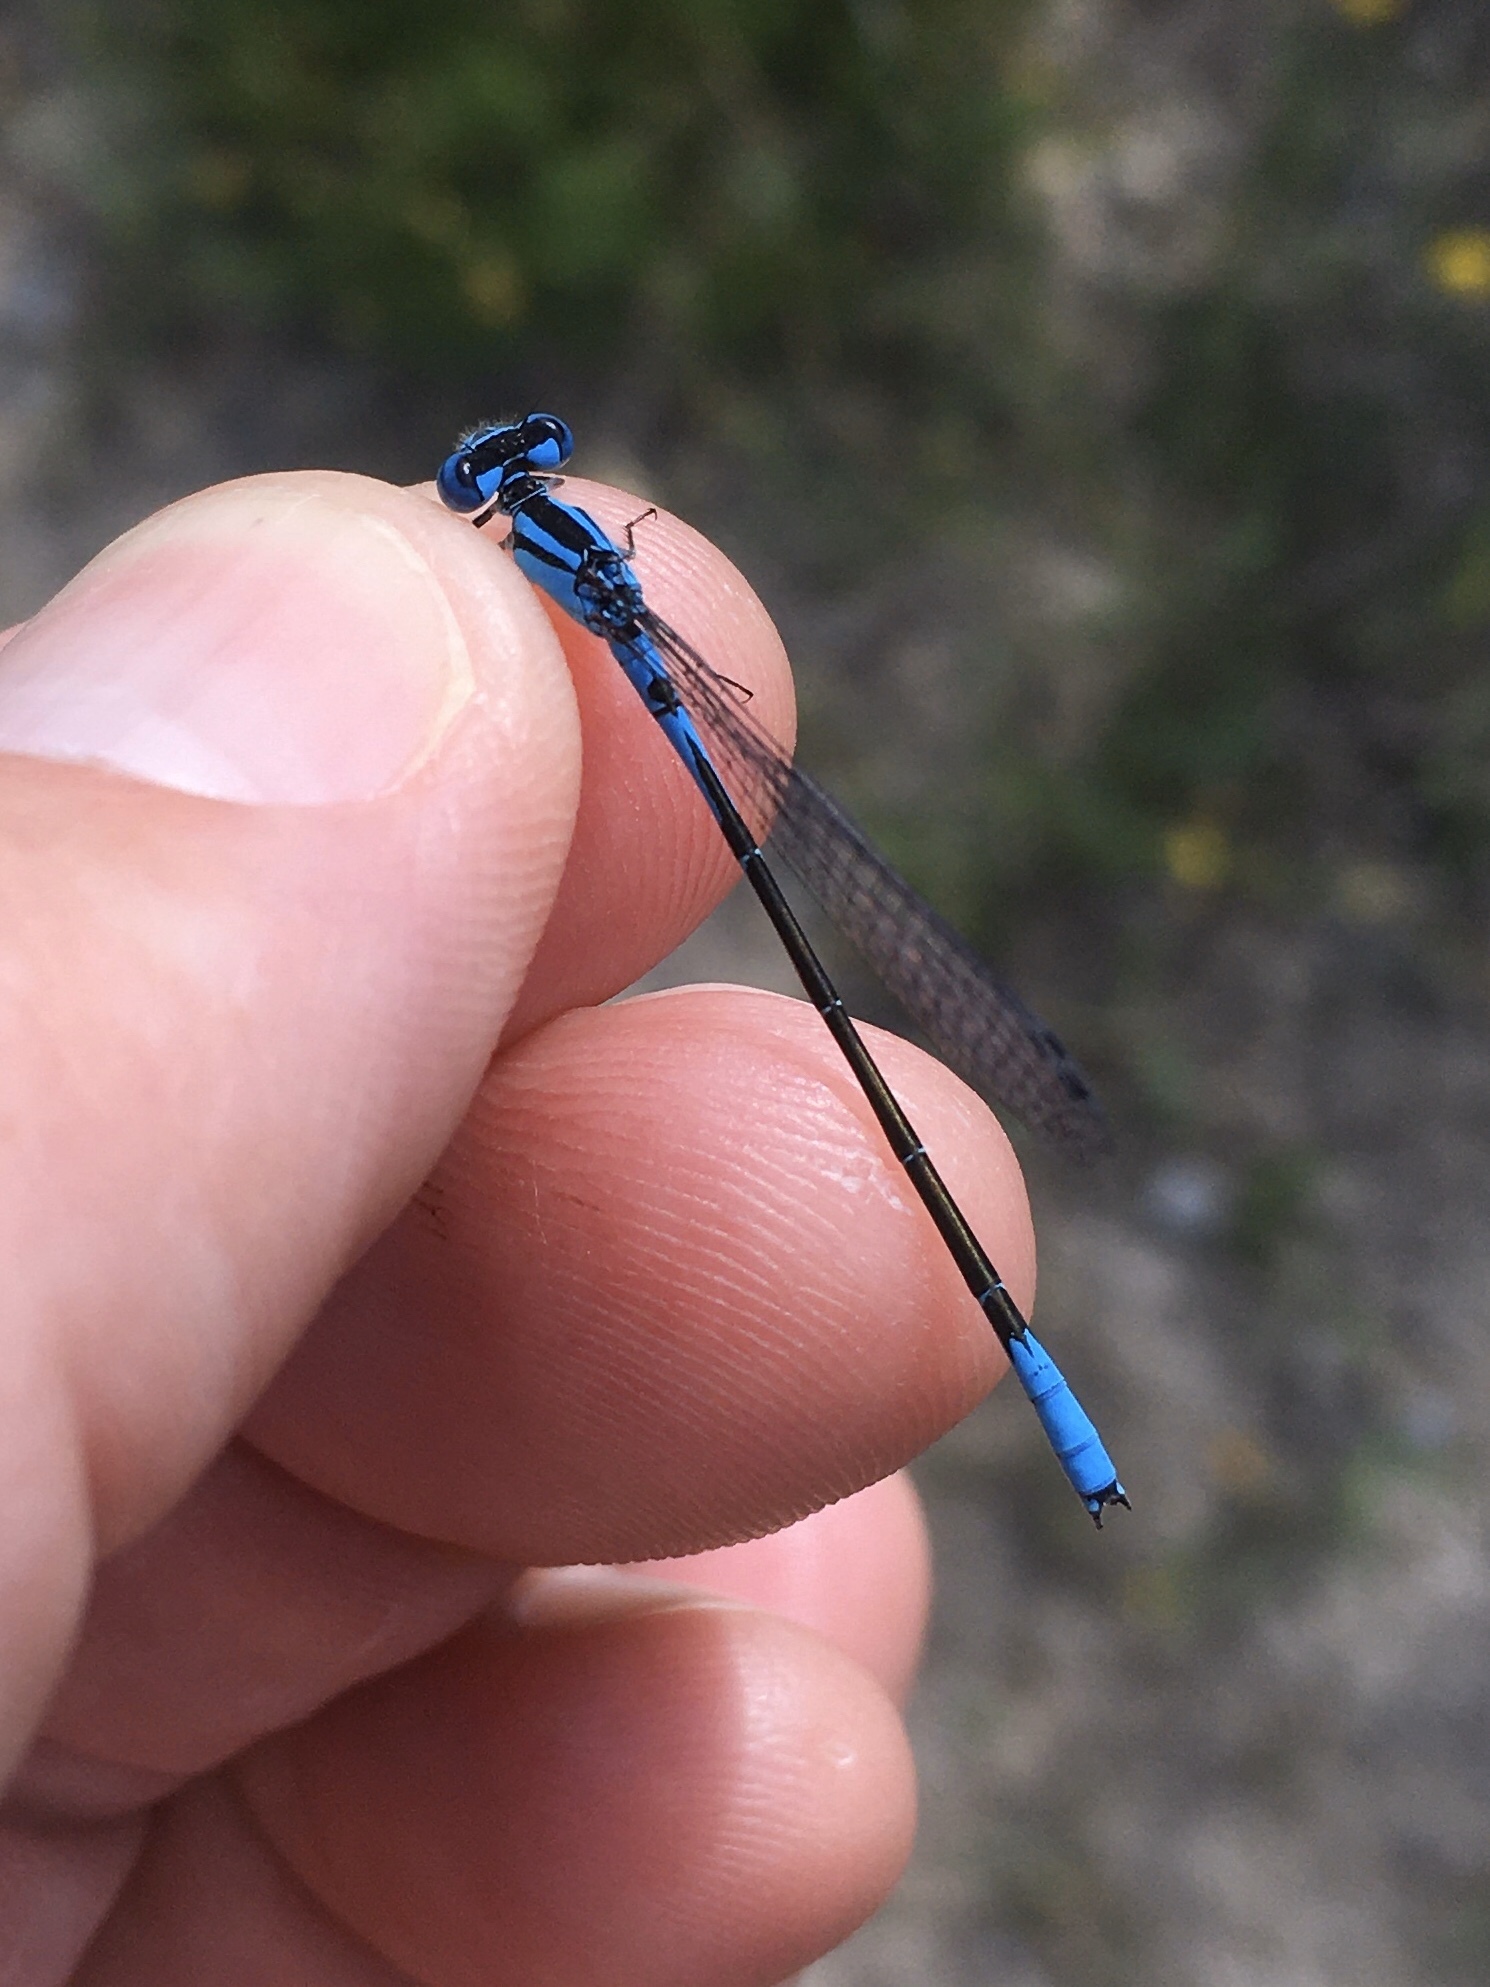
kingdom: Animalia
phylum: Arthropoda
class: Insecta
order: Odonata
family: Coenagrionidae
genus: Enallagma
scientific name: Enallagma aspersum
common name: Azure bluet
